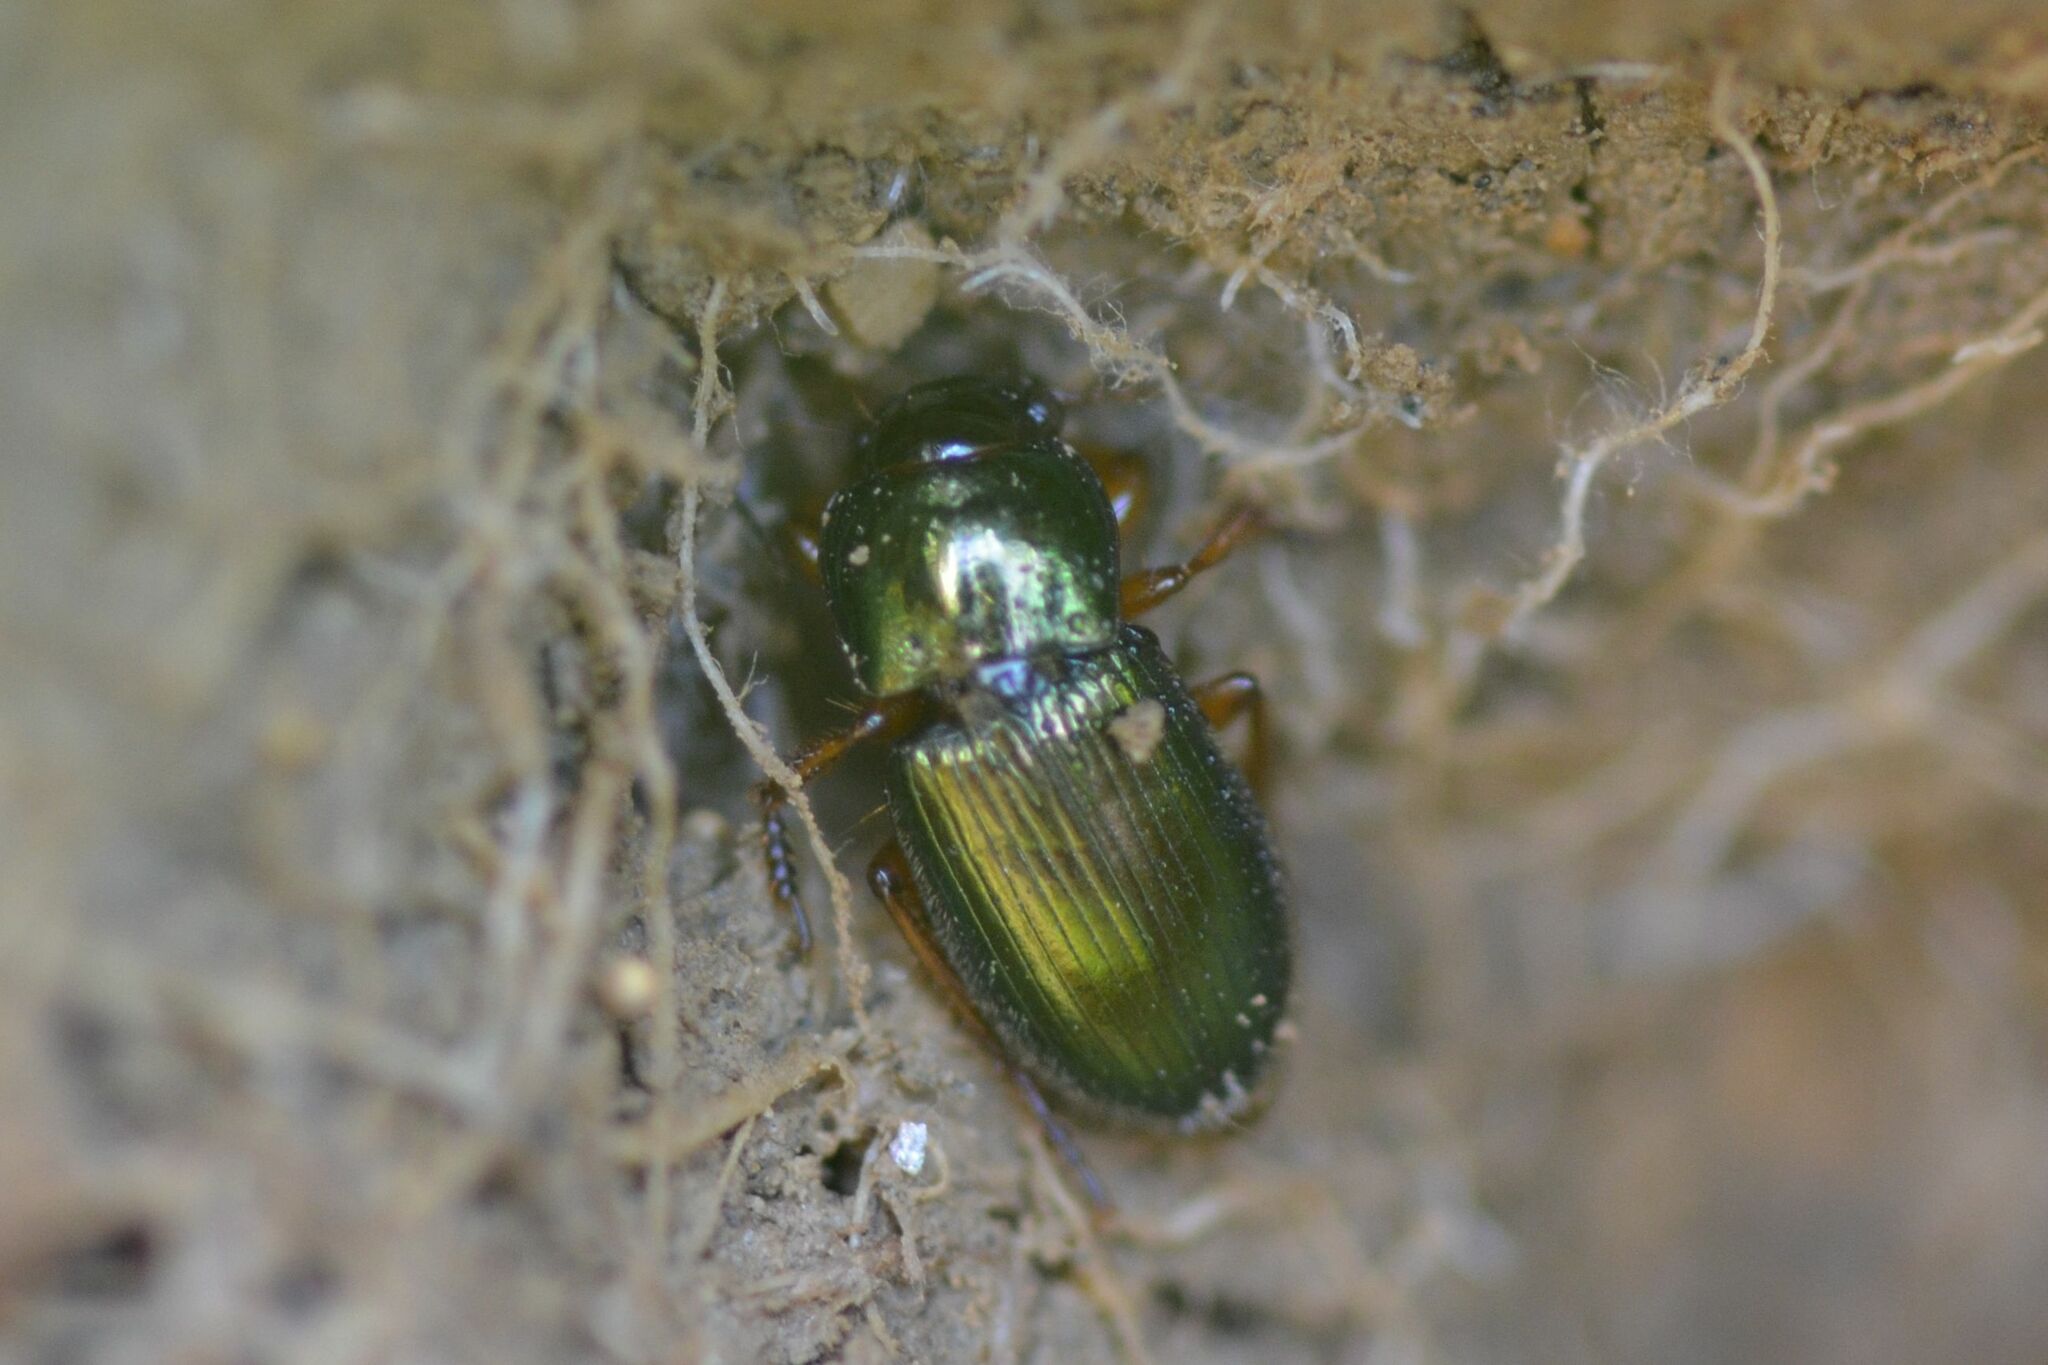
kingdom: Animalia
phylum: Arthropoda
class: Insecta
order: Coleoptera
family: Carabidae
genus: Harpalus
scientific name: Harpalus affinis
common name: Polychrome harp ground beetle
